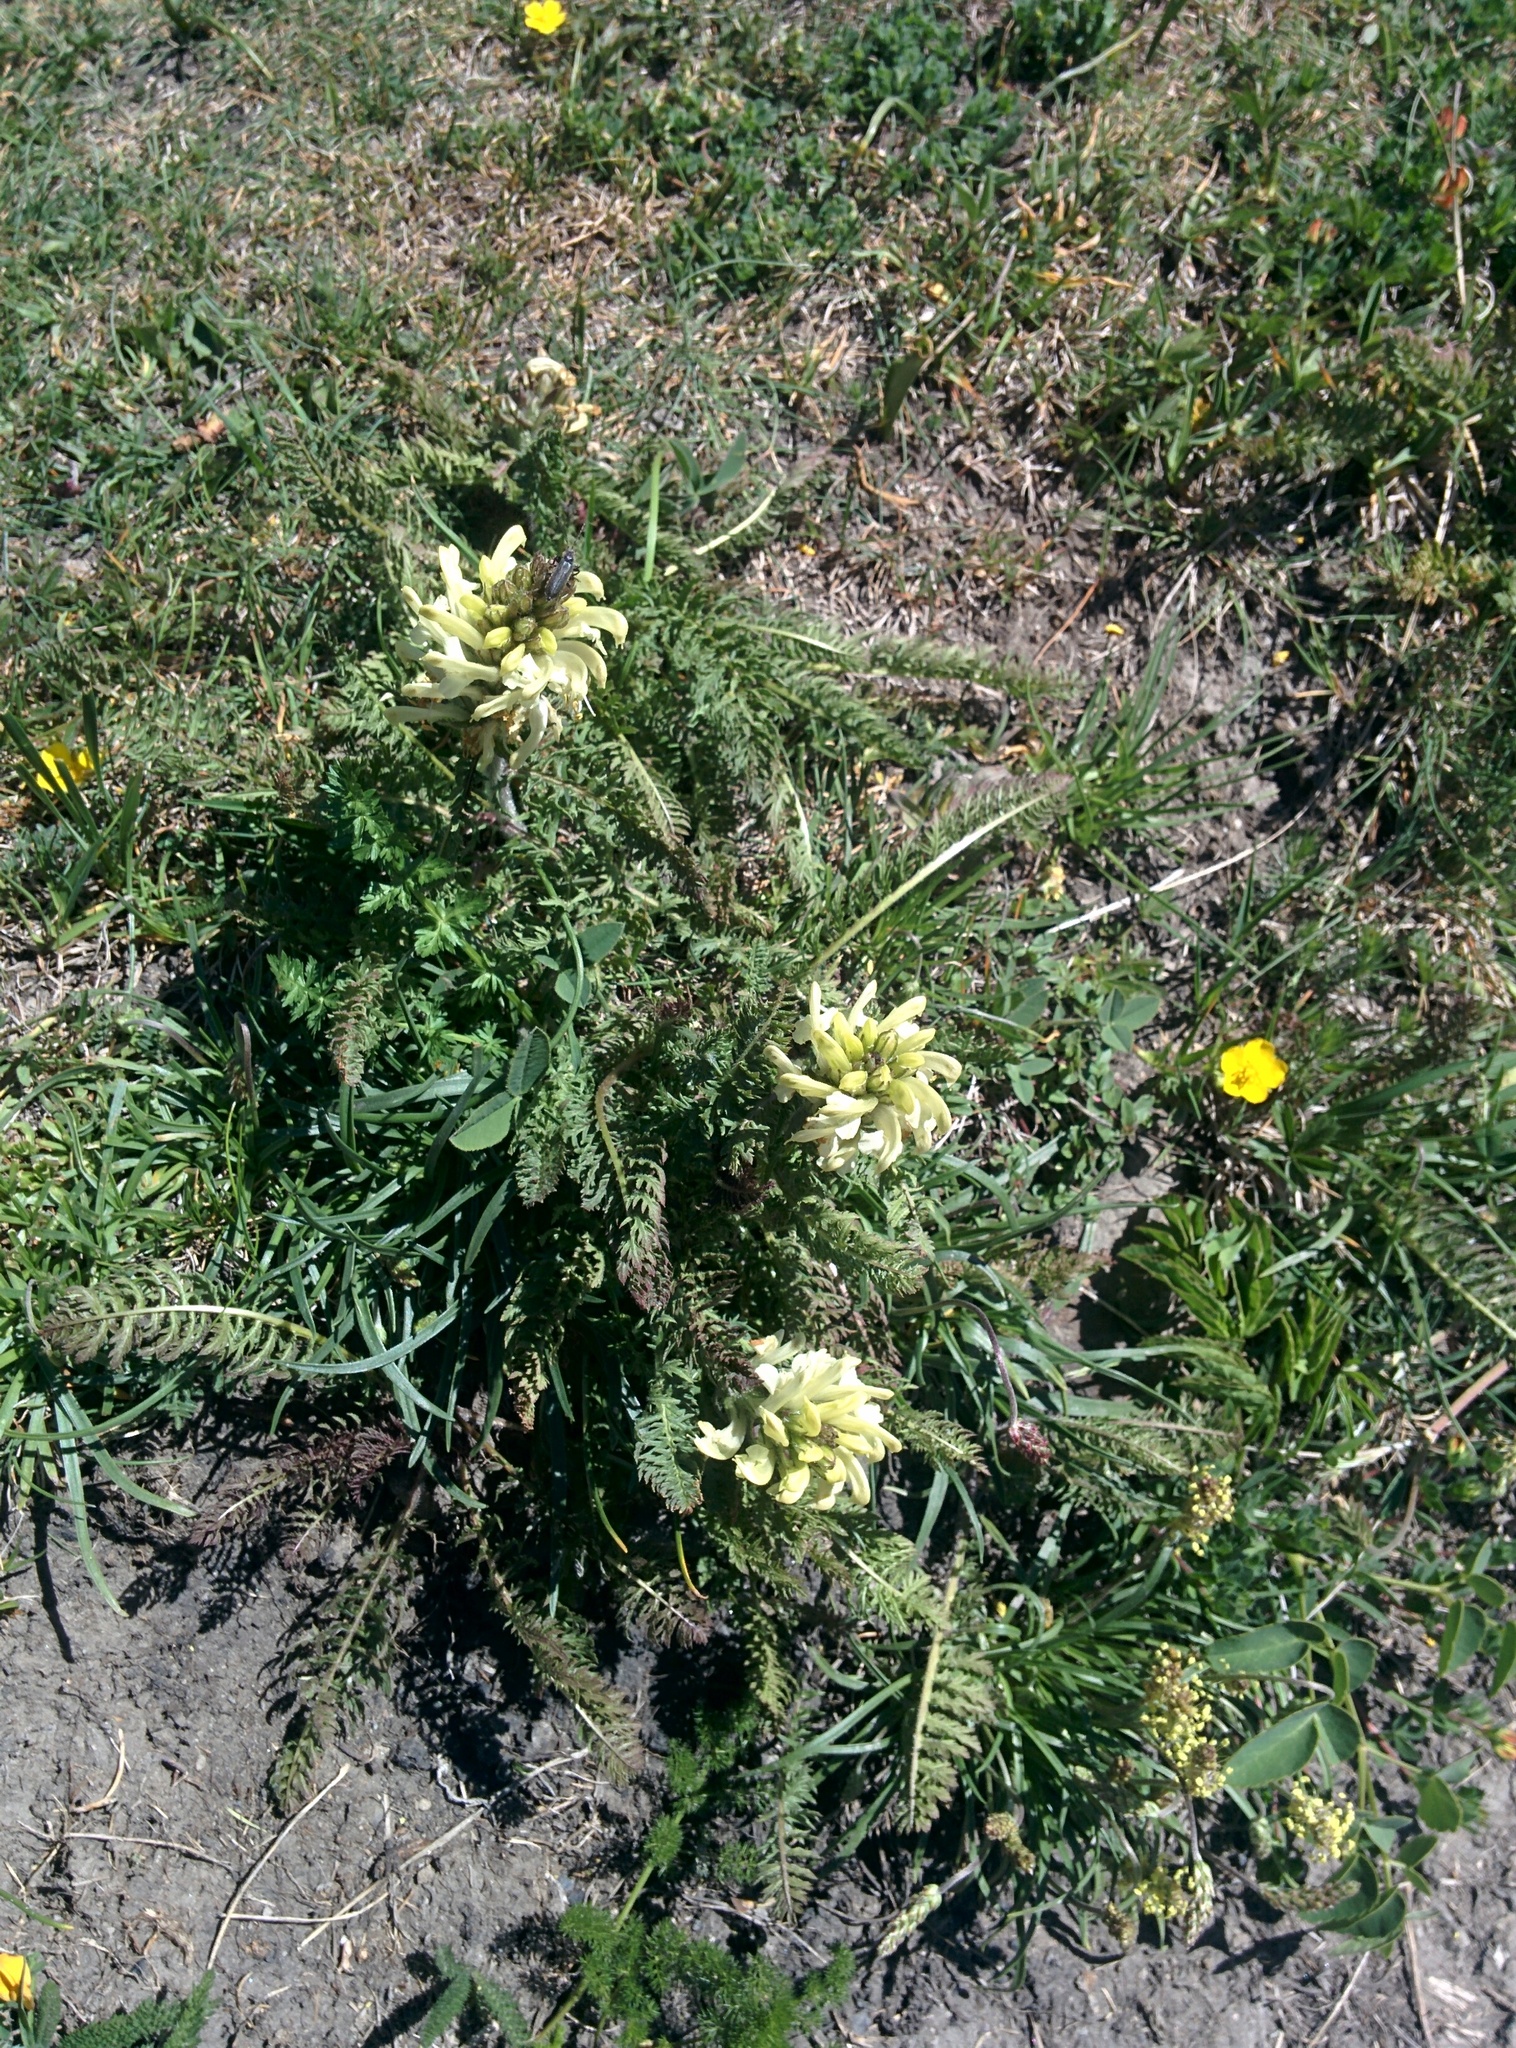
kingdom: Plantae
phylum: Tracheophyta
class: Magnoliopsida
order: Lamiales
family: Orobanchaceae
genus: Pedicularis
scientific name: Pedicularis comosa
